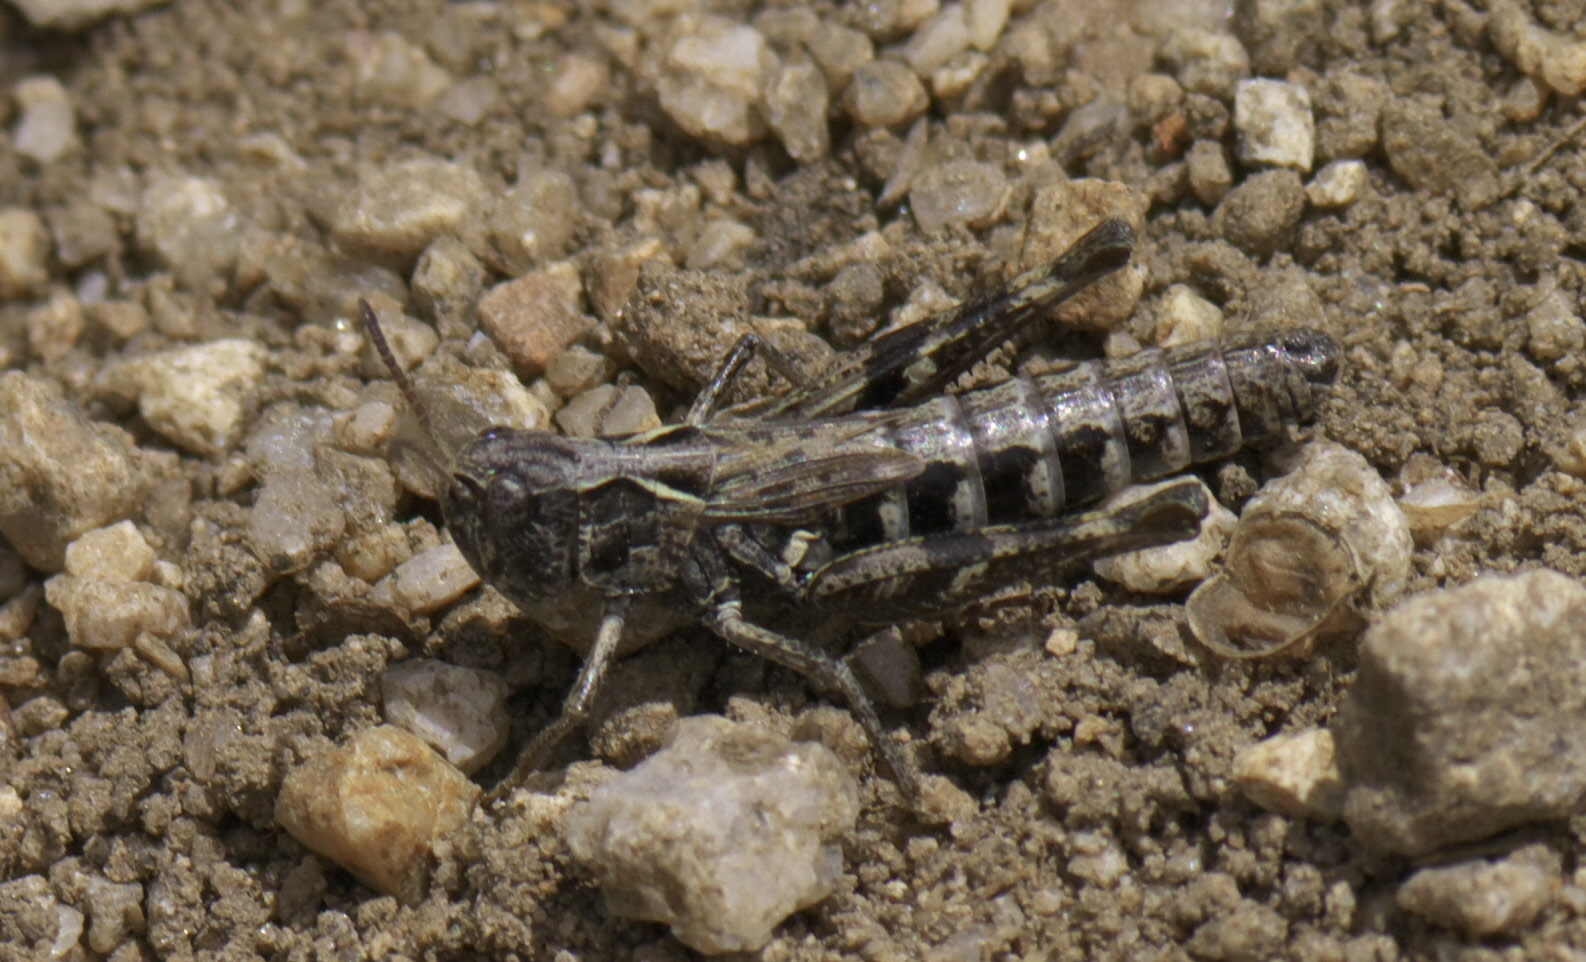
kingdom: Animalia
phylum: Arthropoda
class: Insecta
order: Orthoptera
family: Acrididae
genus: Aeropedellus
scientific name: Aeropedellus clavatus
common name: Clubhorned grasshopper
